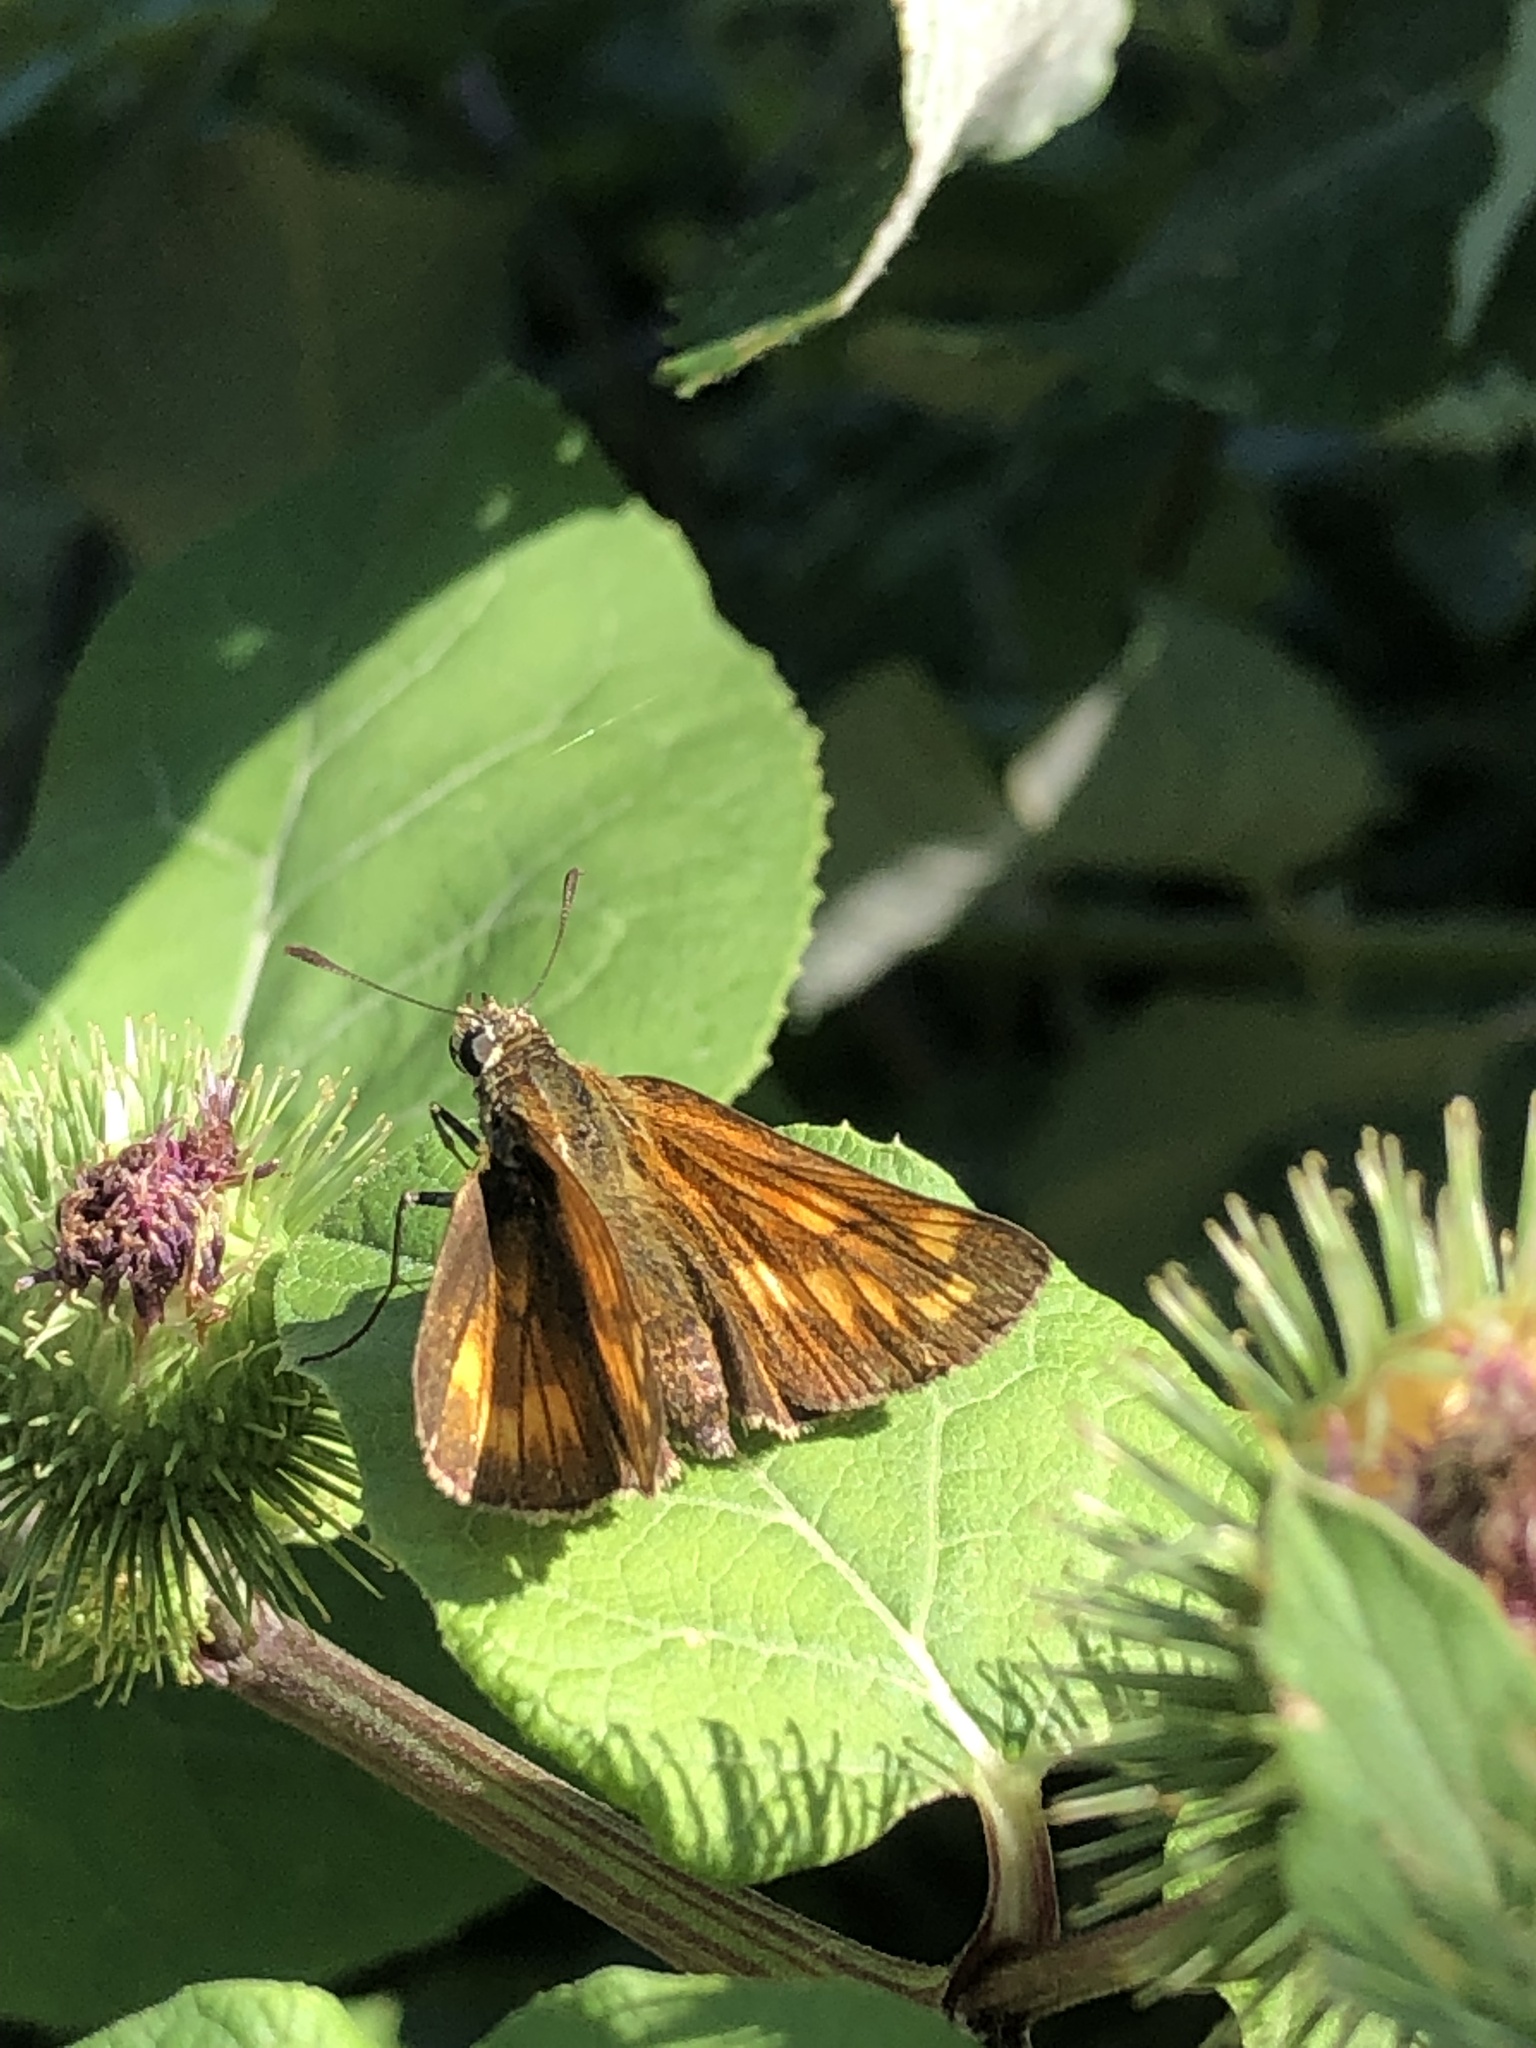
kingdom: Animalia
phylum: Arthropoda
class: Insecta
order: Lepidoptera
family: Hesperiidae
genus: Ochlodes
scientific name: Ochlodes venata
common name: Large skipper
